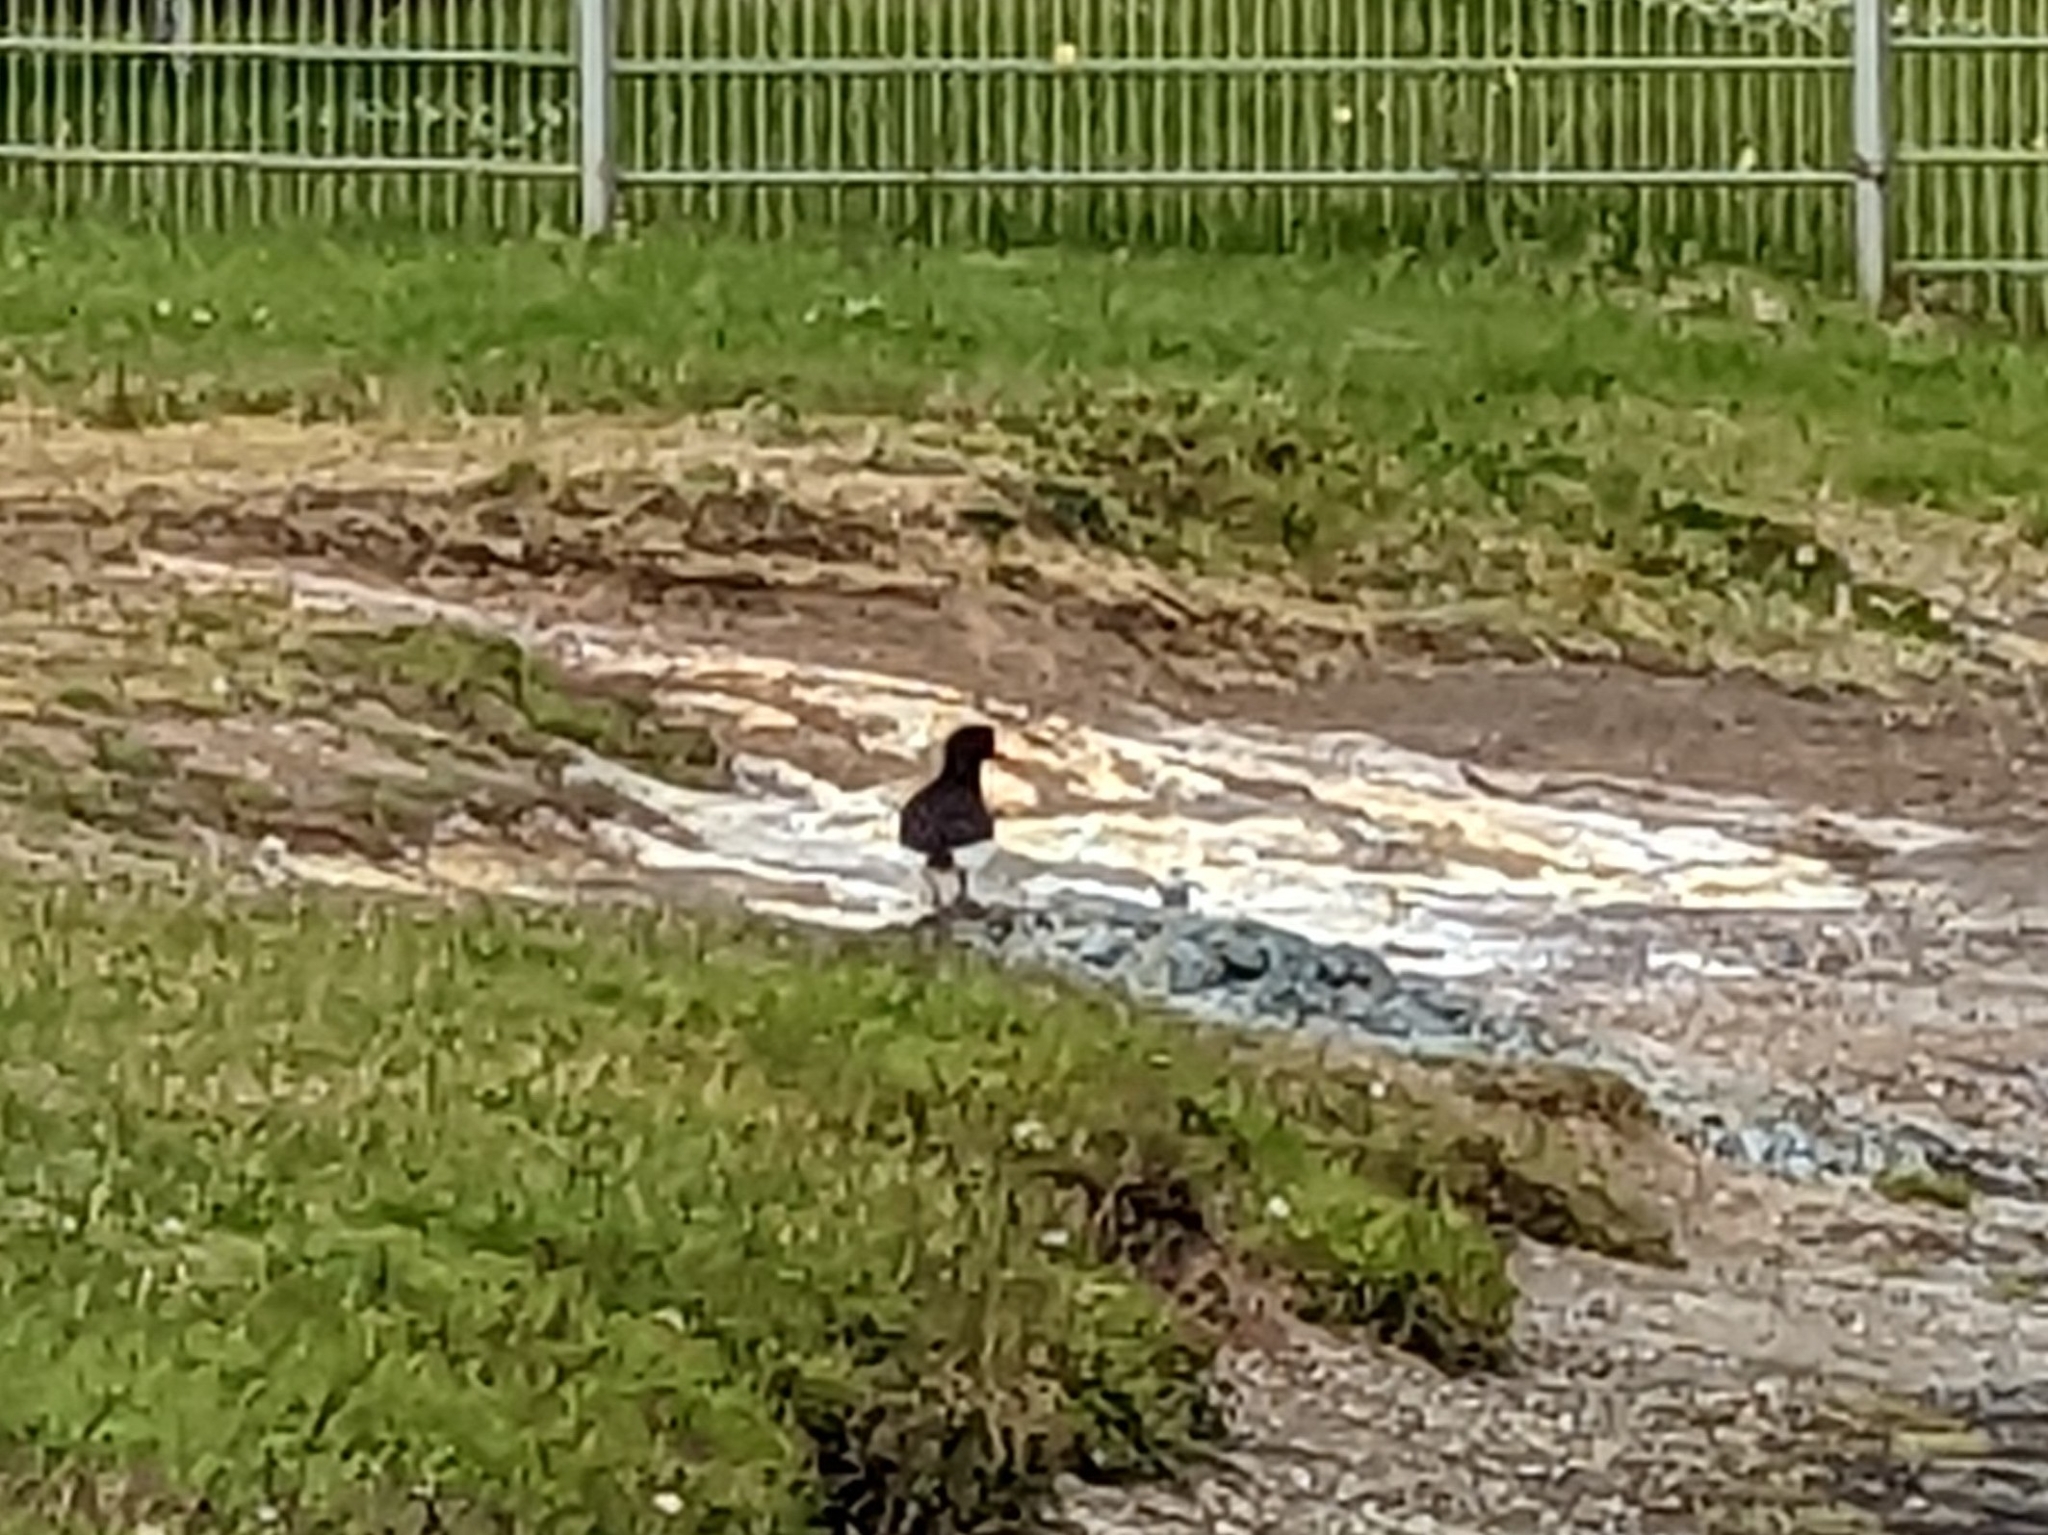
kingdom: Animalia
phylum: Chordata
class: Aves
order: Charadriiformes
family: Haematopodidae
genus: Haematopus
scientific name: Haematopus ostralegus
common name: Eurasian oystercatcher
